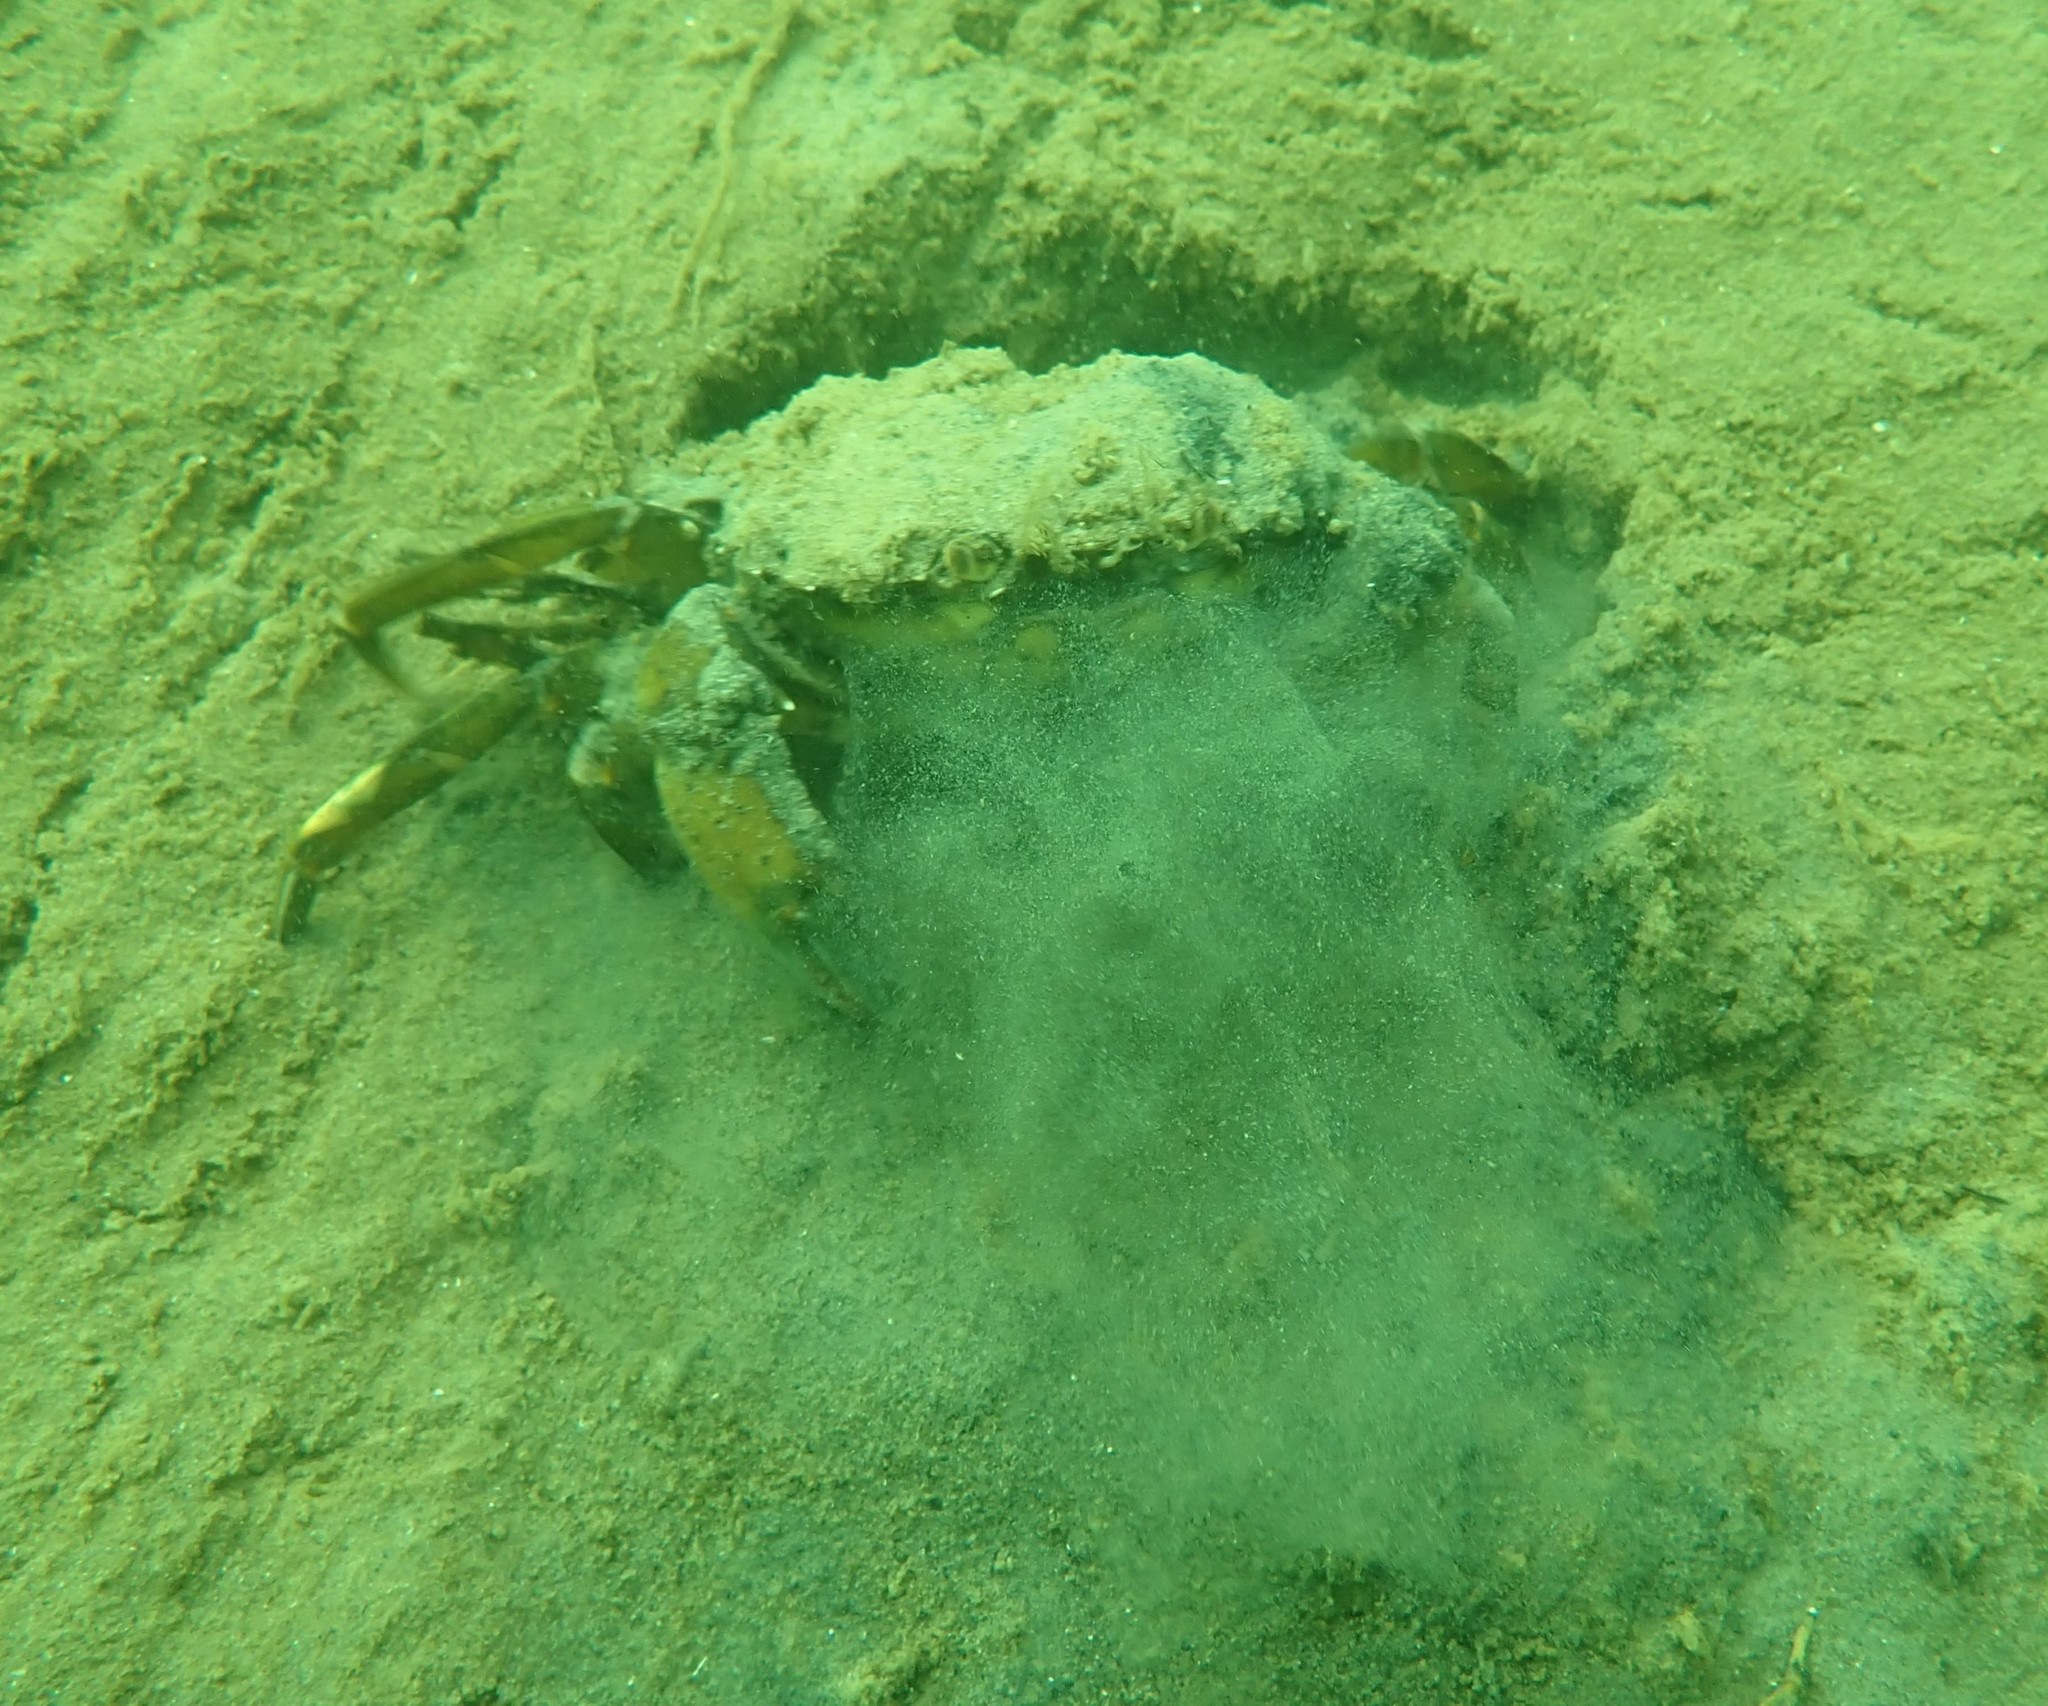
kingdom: Animalia
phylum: Arthropoda
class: Malacostraca
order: Decapoda
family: Carcinidae
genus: Carcinus
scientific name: Carcinus maenas
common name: European green crab
